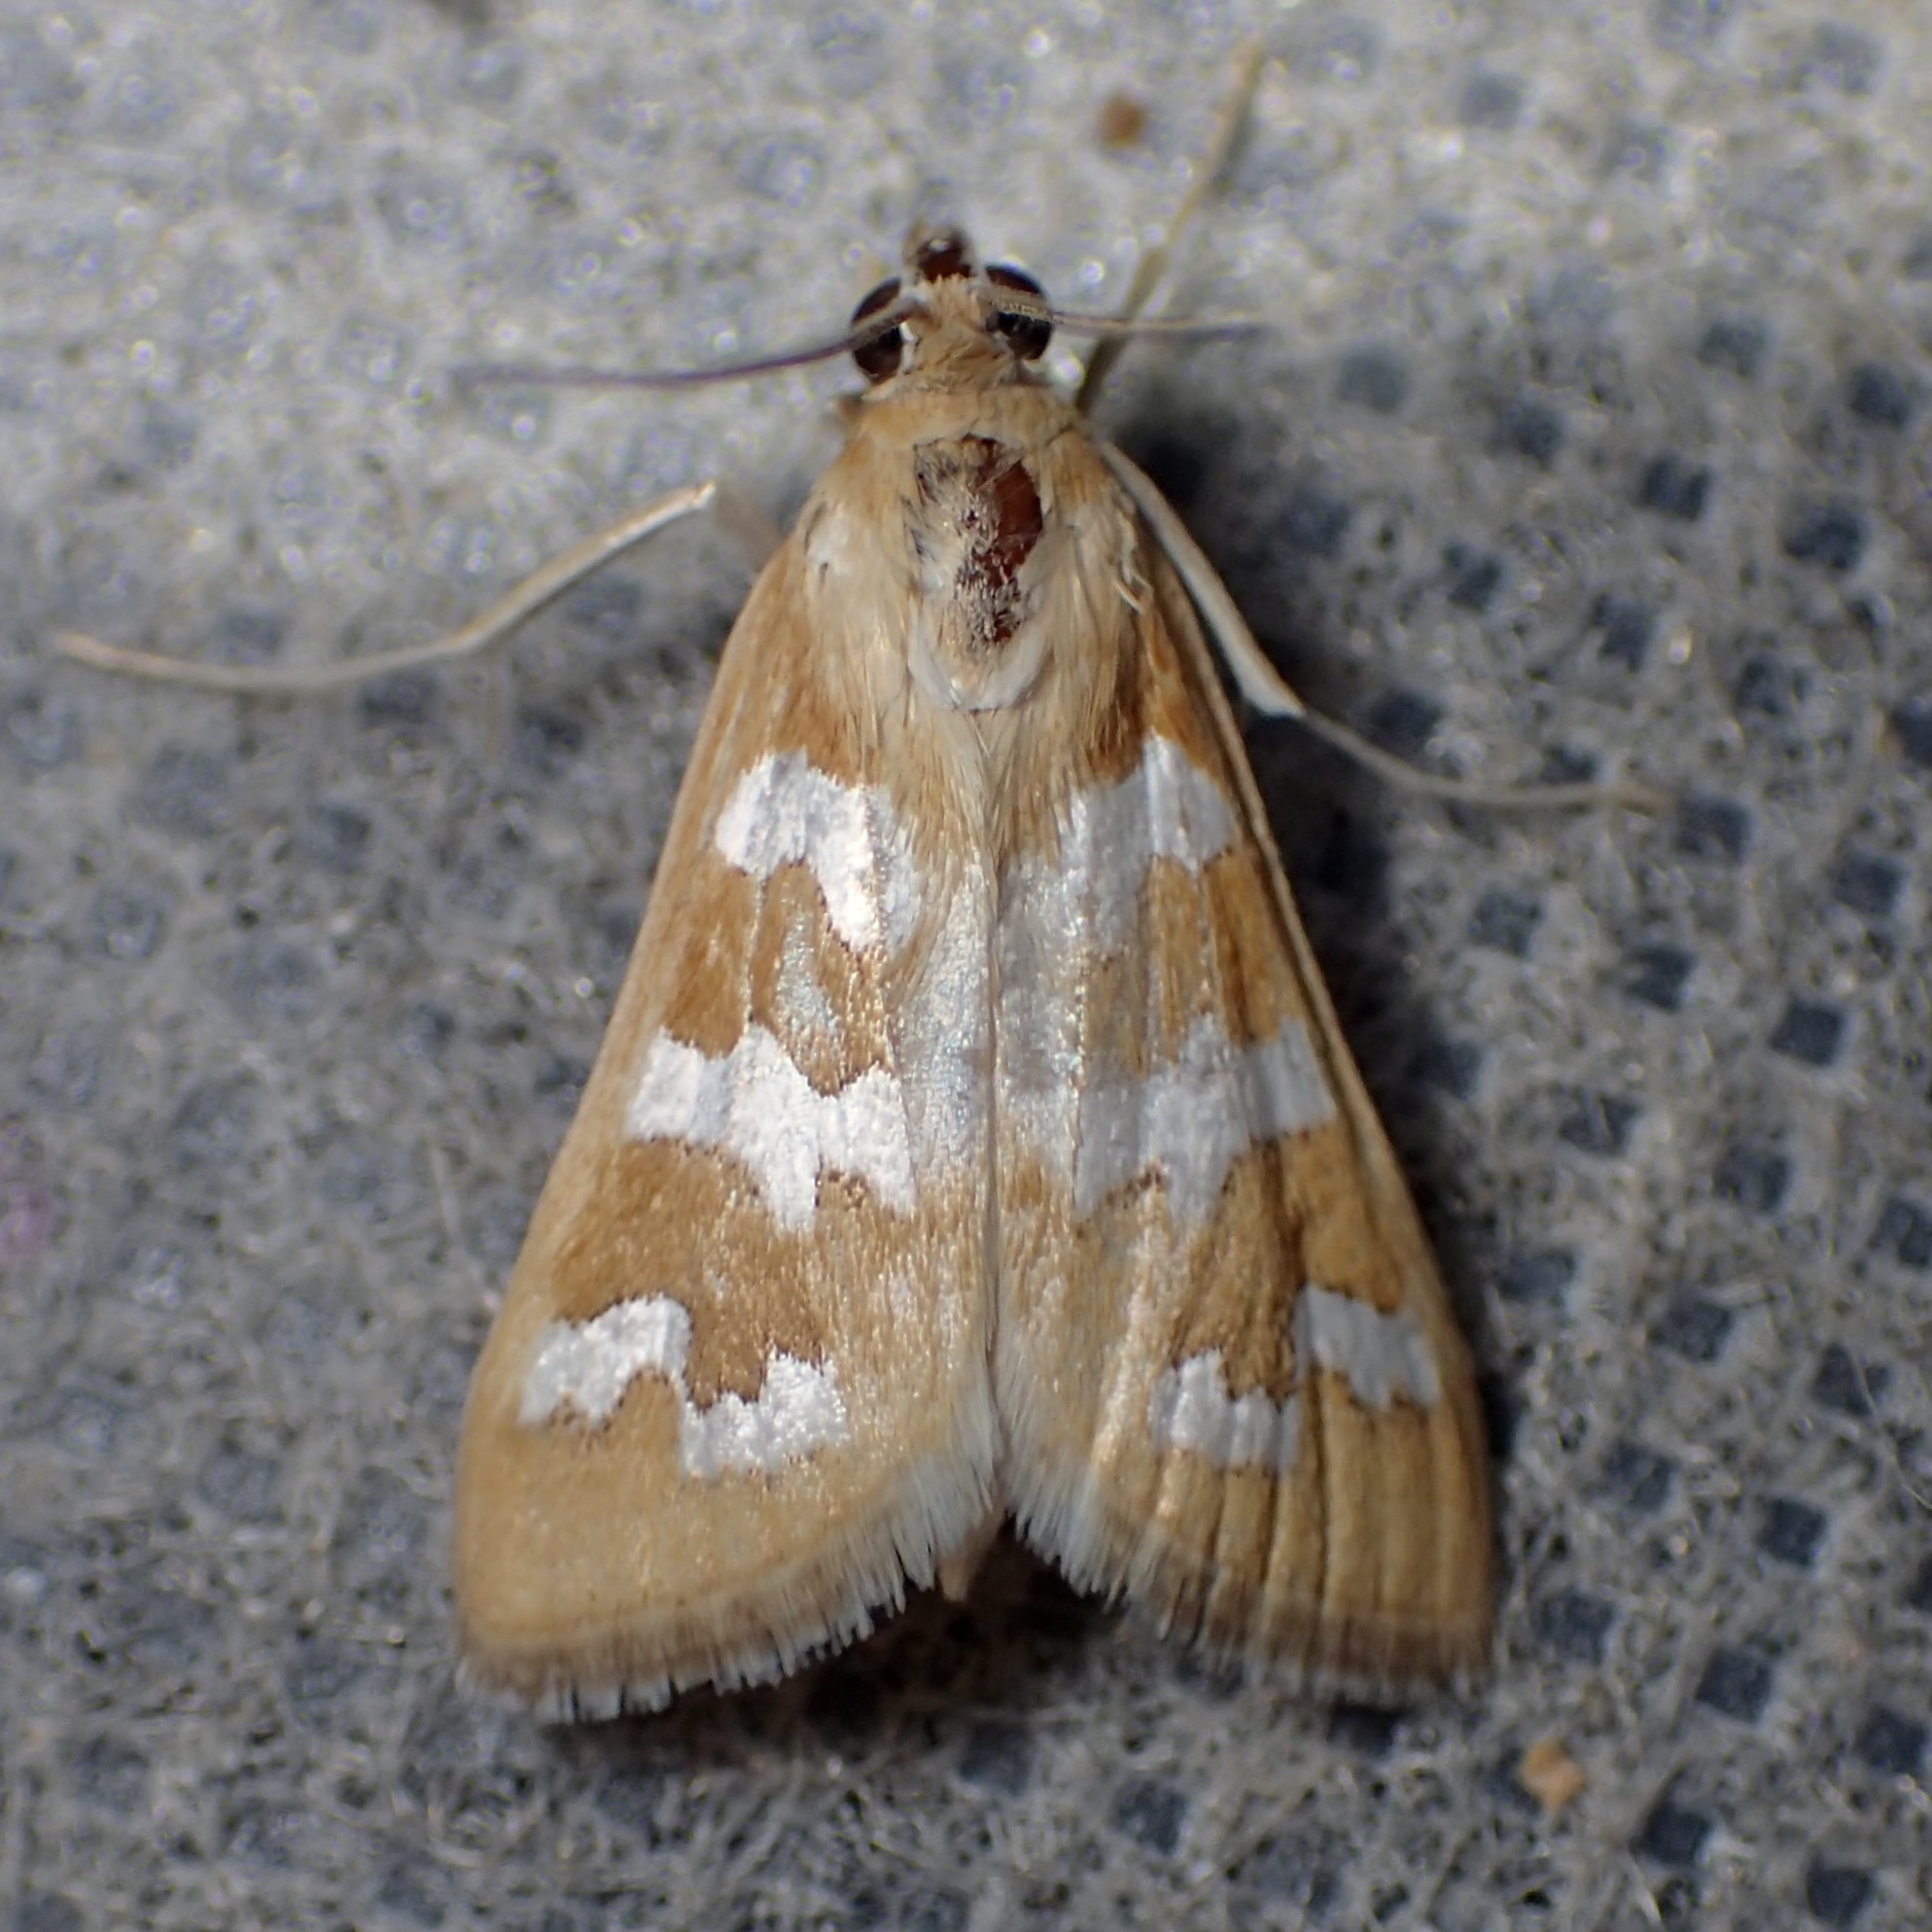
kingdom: Animalia
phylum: Arthropoda
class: Insecta
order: Lepidoptera
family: Crambidae
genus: Diastictis
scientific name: Diastictis fracturalis
